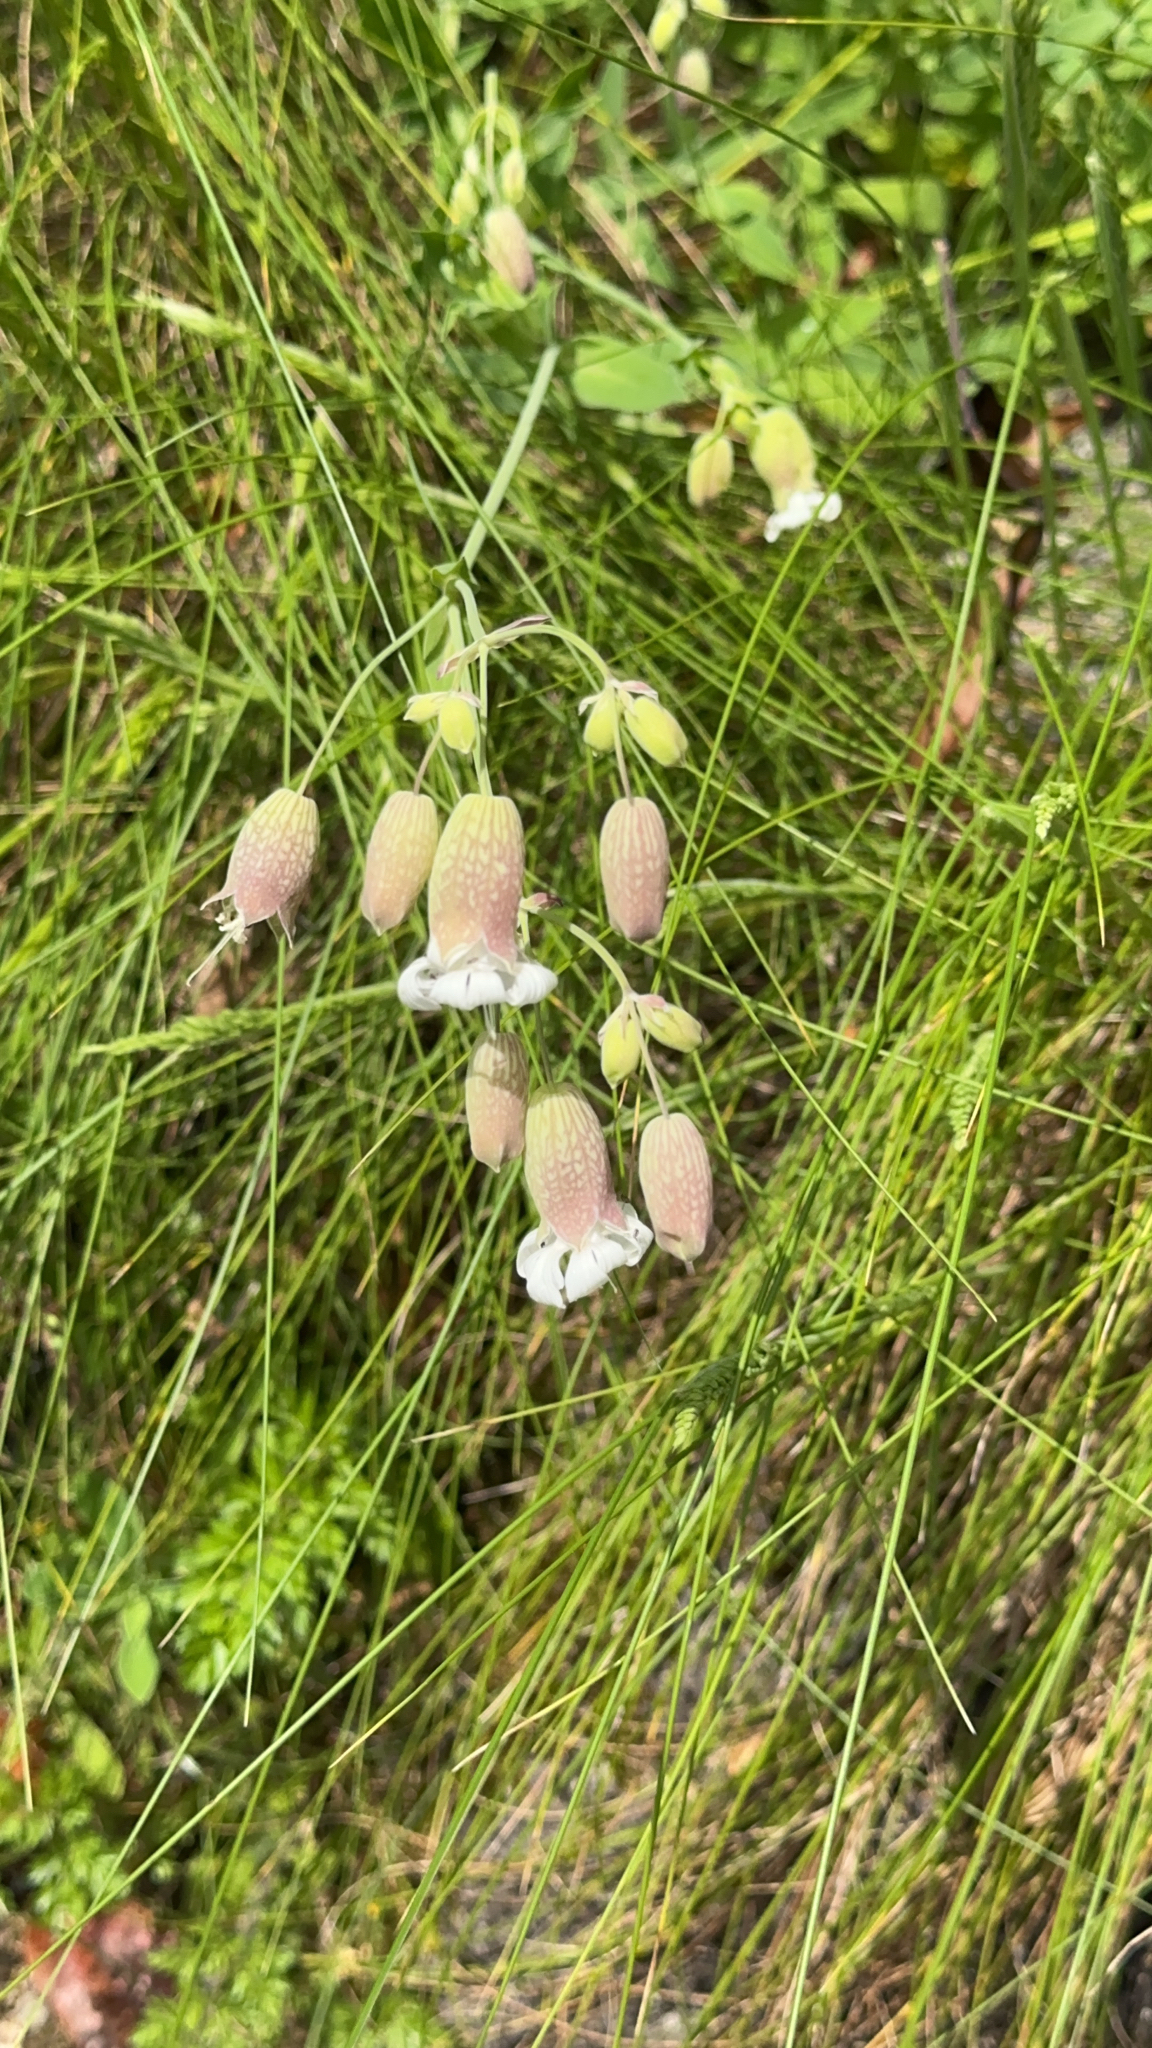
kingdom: Plantae
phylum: Tracheophyta
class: Magnoliopsida
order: Caryophyllales
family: Caryophyllaceae
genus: Silene
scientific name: Silene vulgaris
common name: Bladder campion
